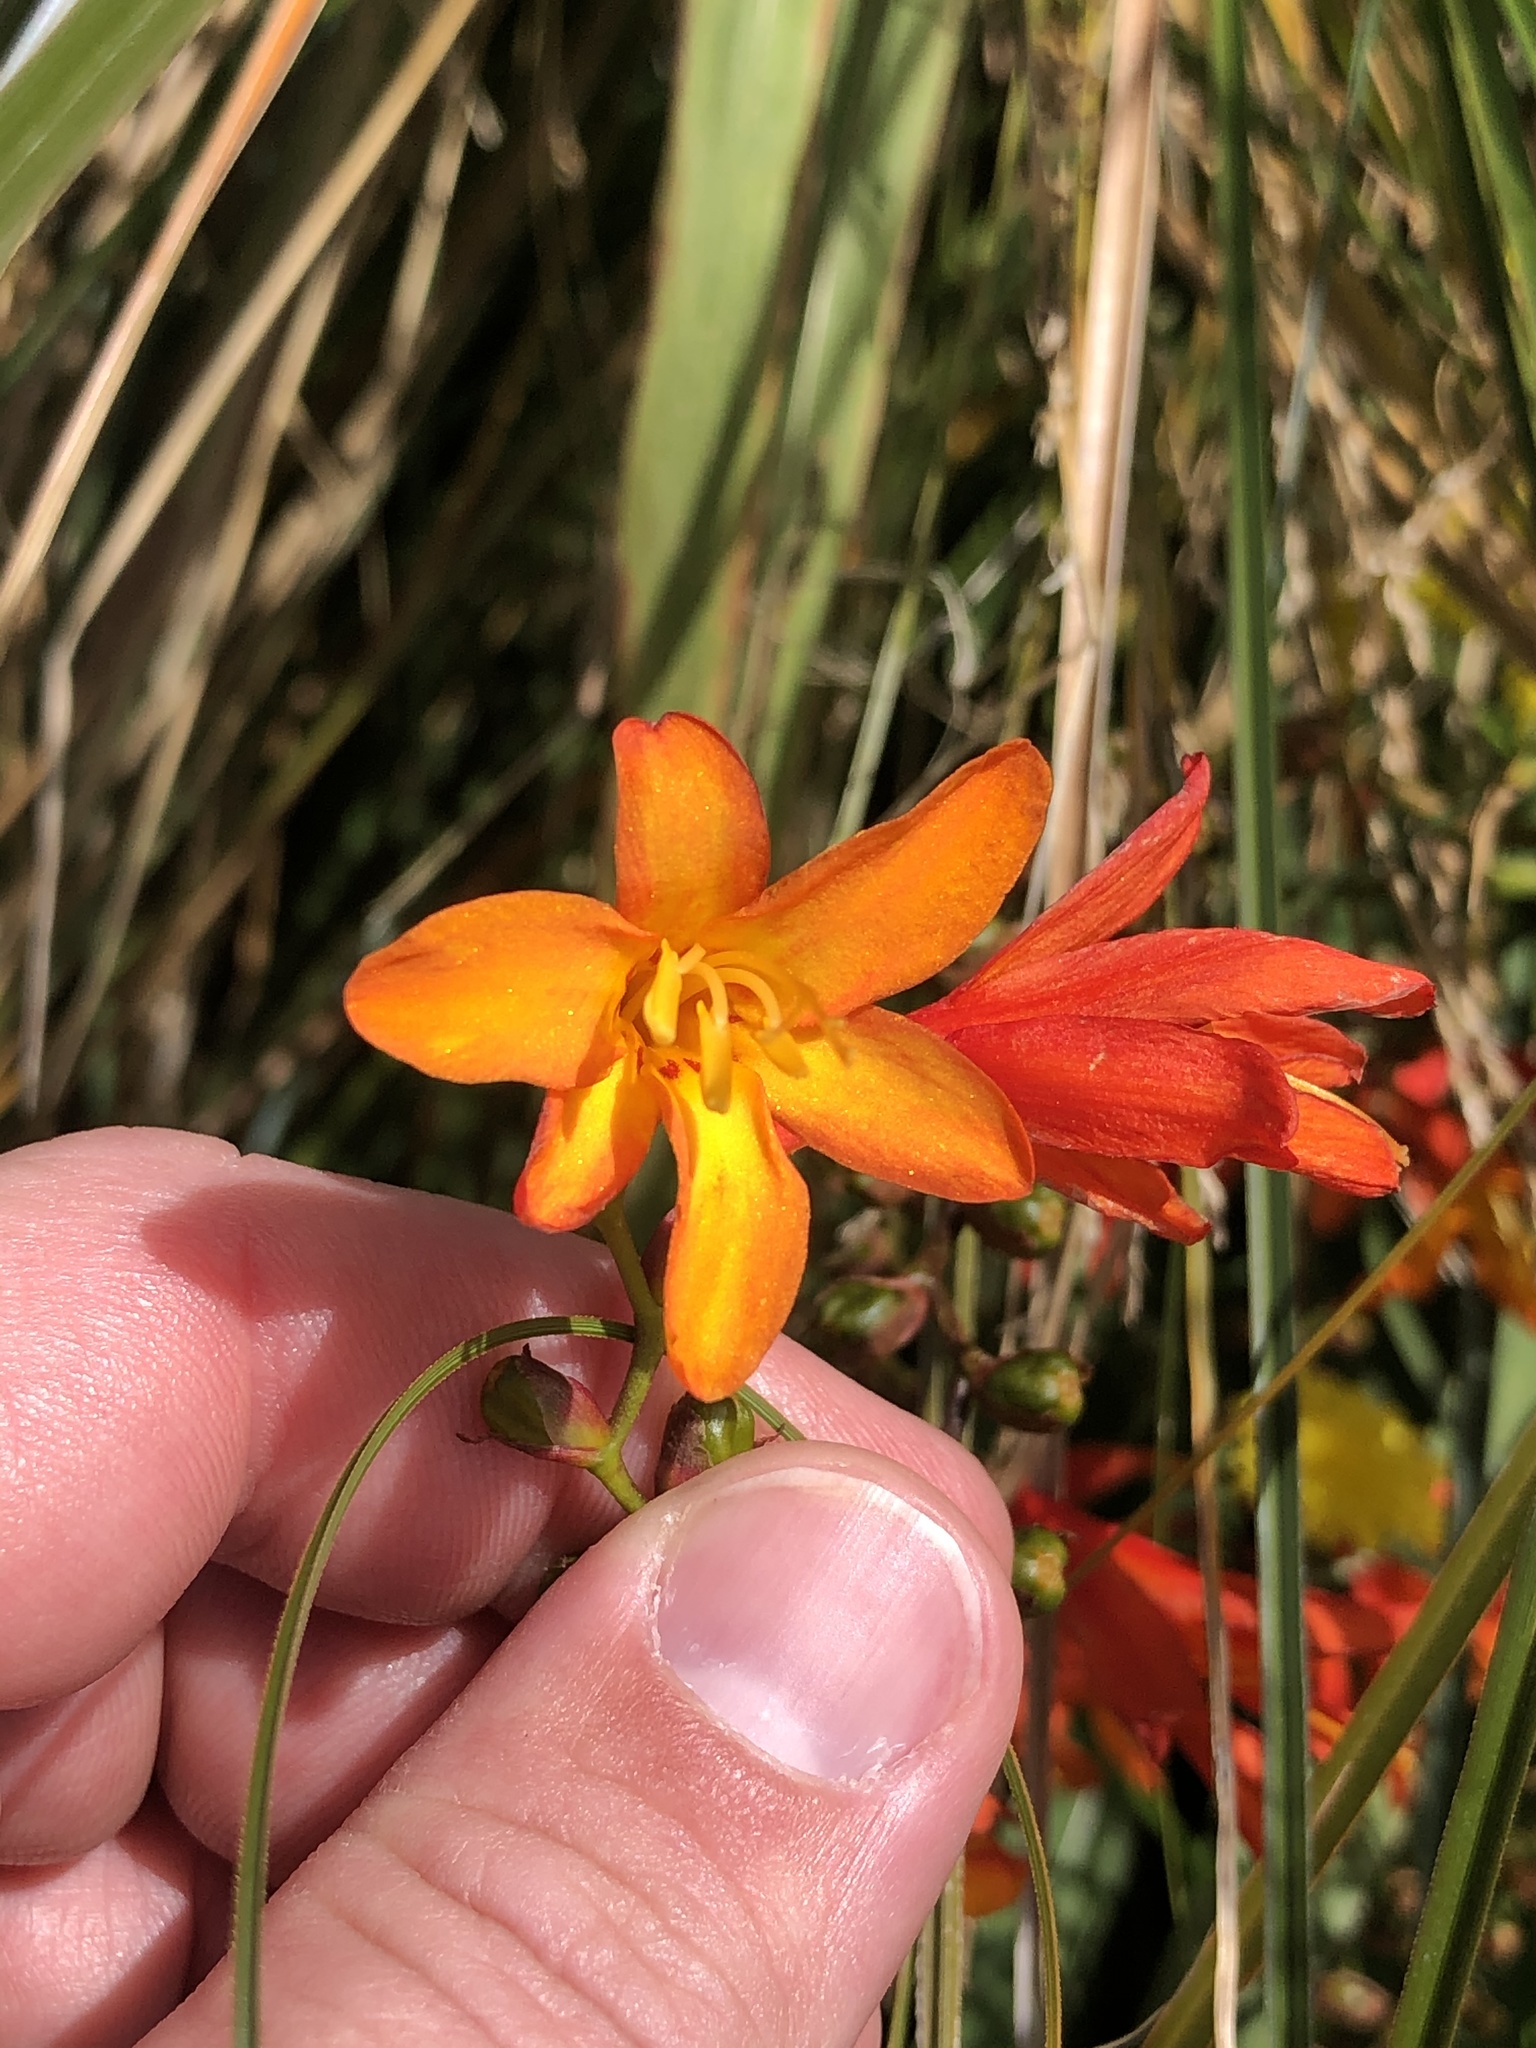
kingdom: Plantae
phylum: Tracheophyta
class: Liliopsida
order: Asparagales
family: Iridaceae
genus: Crocosmia
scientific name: Crocosmia crocosmiiflora
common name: Montbretia
